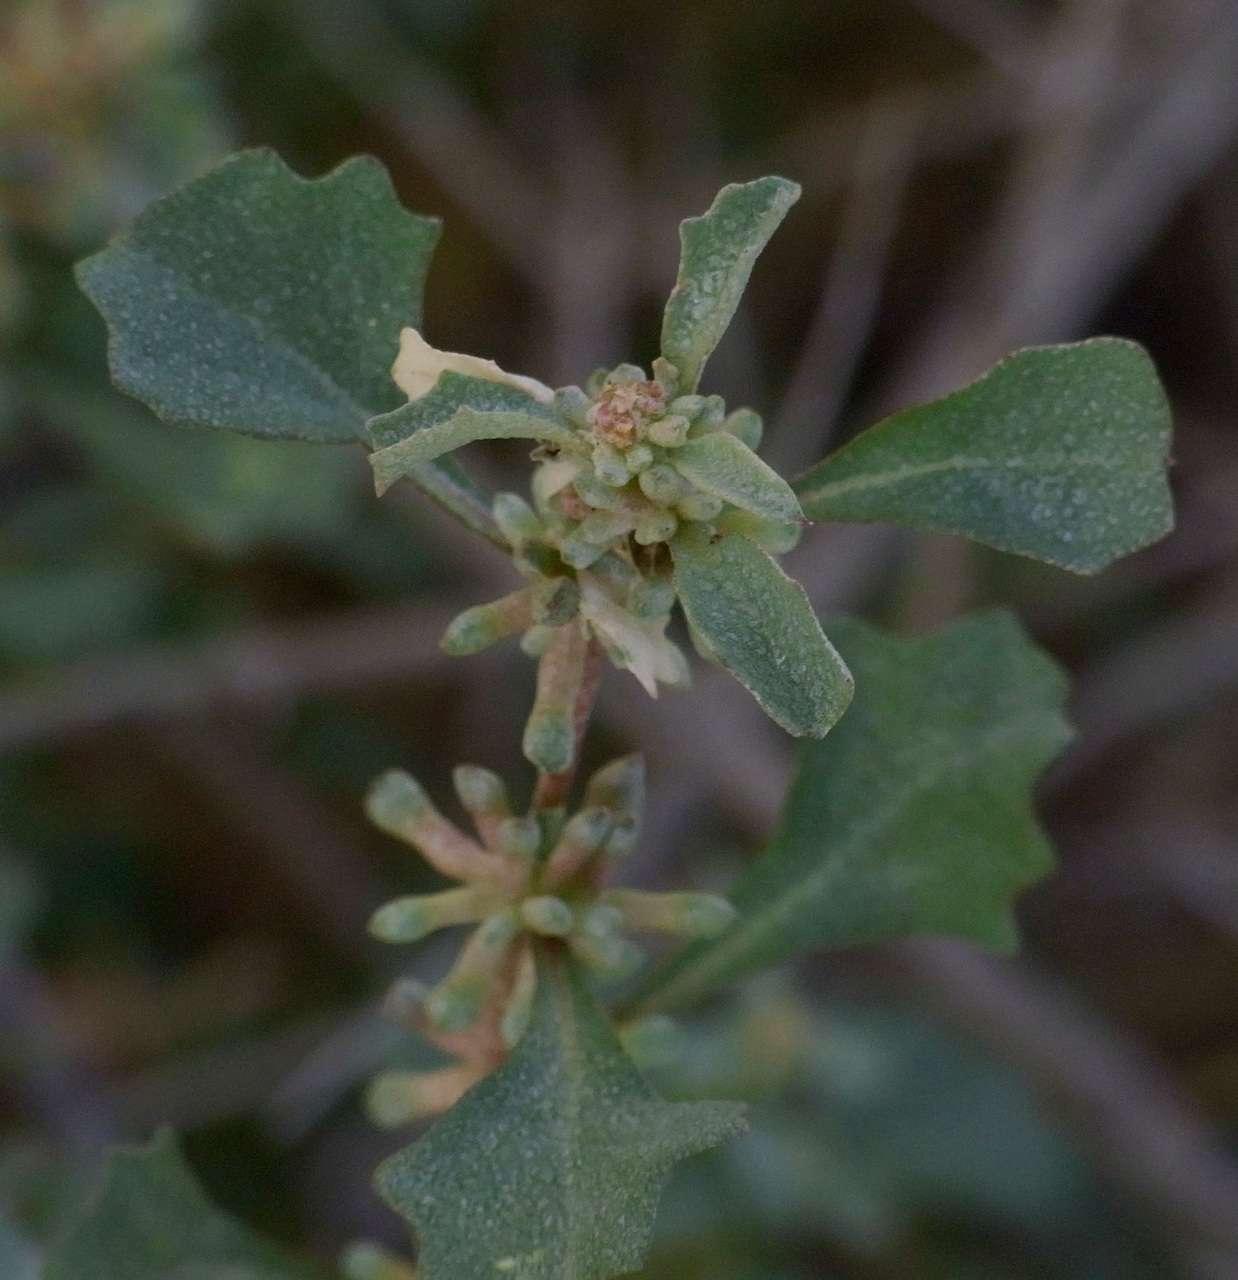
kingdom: Plantae
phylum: Tracheophyta
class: Magnoliopsida
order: Caryophyllales
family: Amaranthaceae
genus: Atriplex
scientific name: Atriplex leptocarpa
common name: Slender-fruit saltbush
